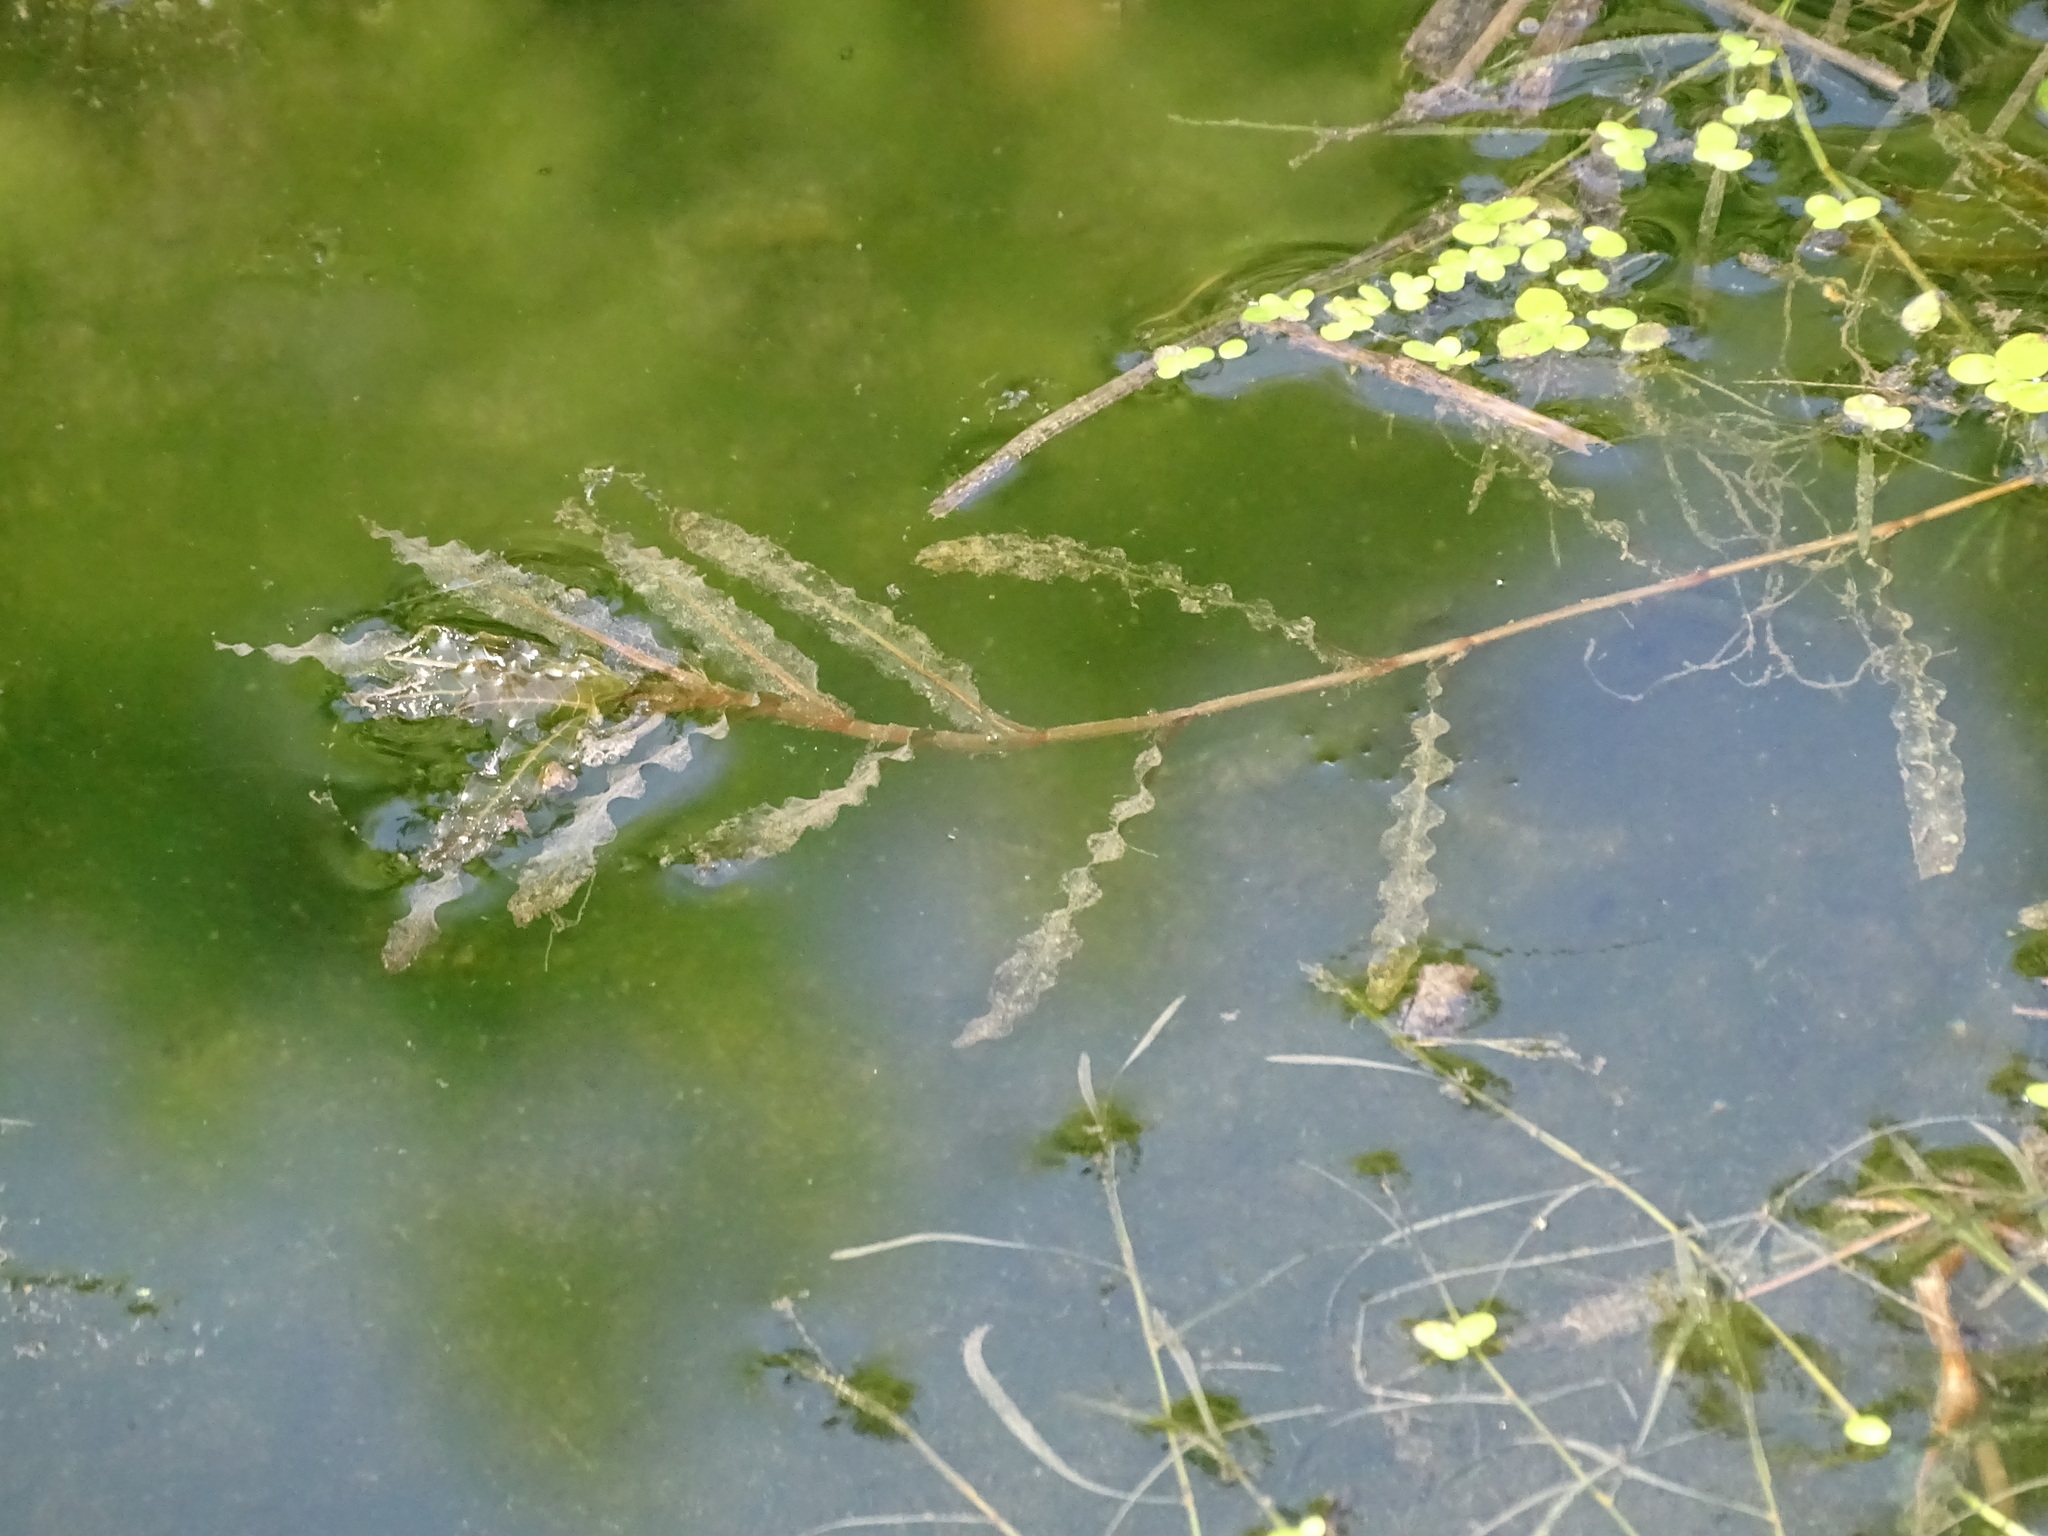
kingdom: Plantae
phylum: Tracheophyta
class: Liliopsida
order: Alismatales
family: Potamogetonaceae
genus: Potamogeton
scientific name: Potamogeton crispus
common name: Curled pondweed
